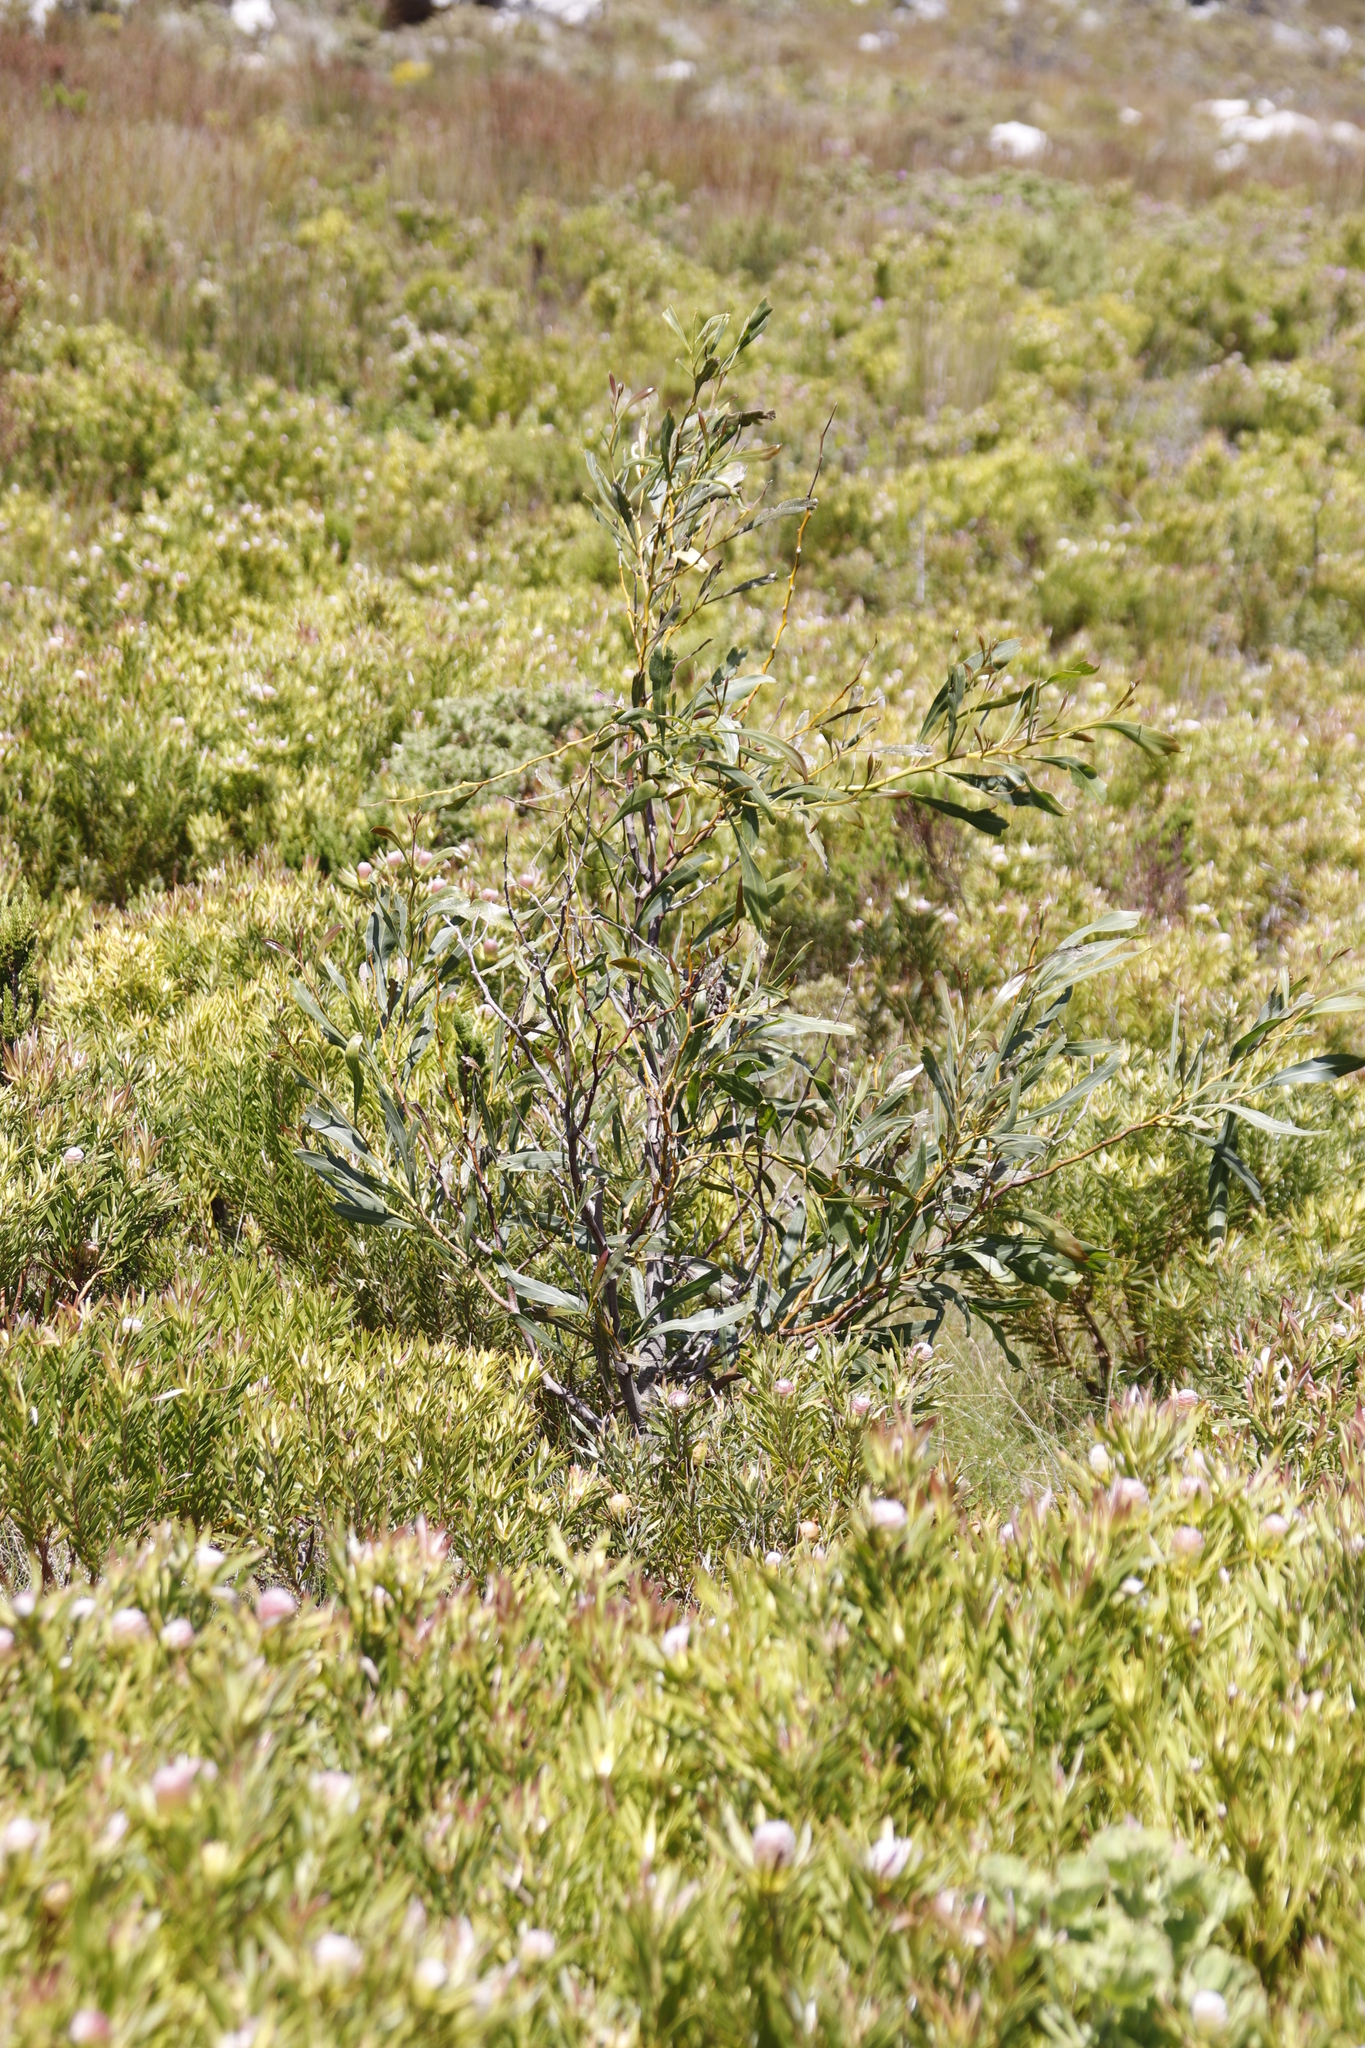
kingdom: Plantae
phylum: Tracheophyta
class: Magnoliopsida
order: Fabales
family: Fabaceae
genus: Acacia
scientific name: Acacia saligna
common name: Orange wattle
